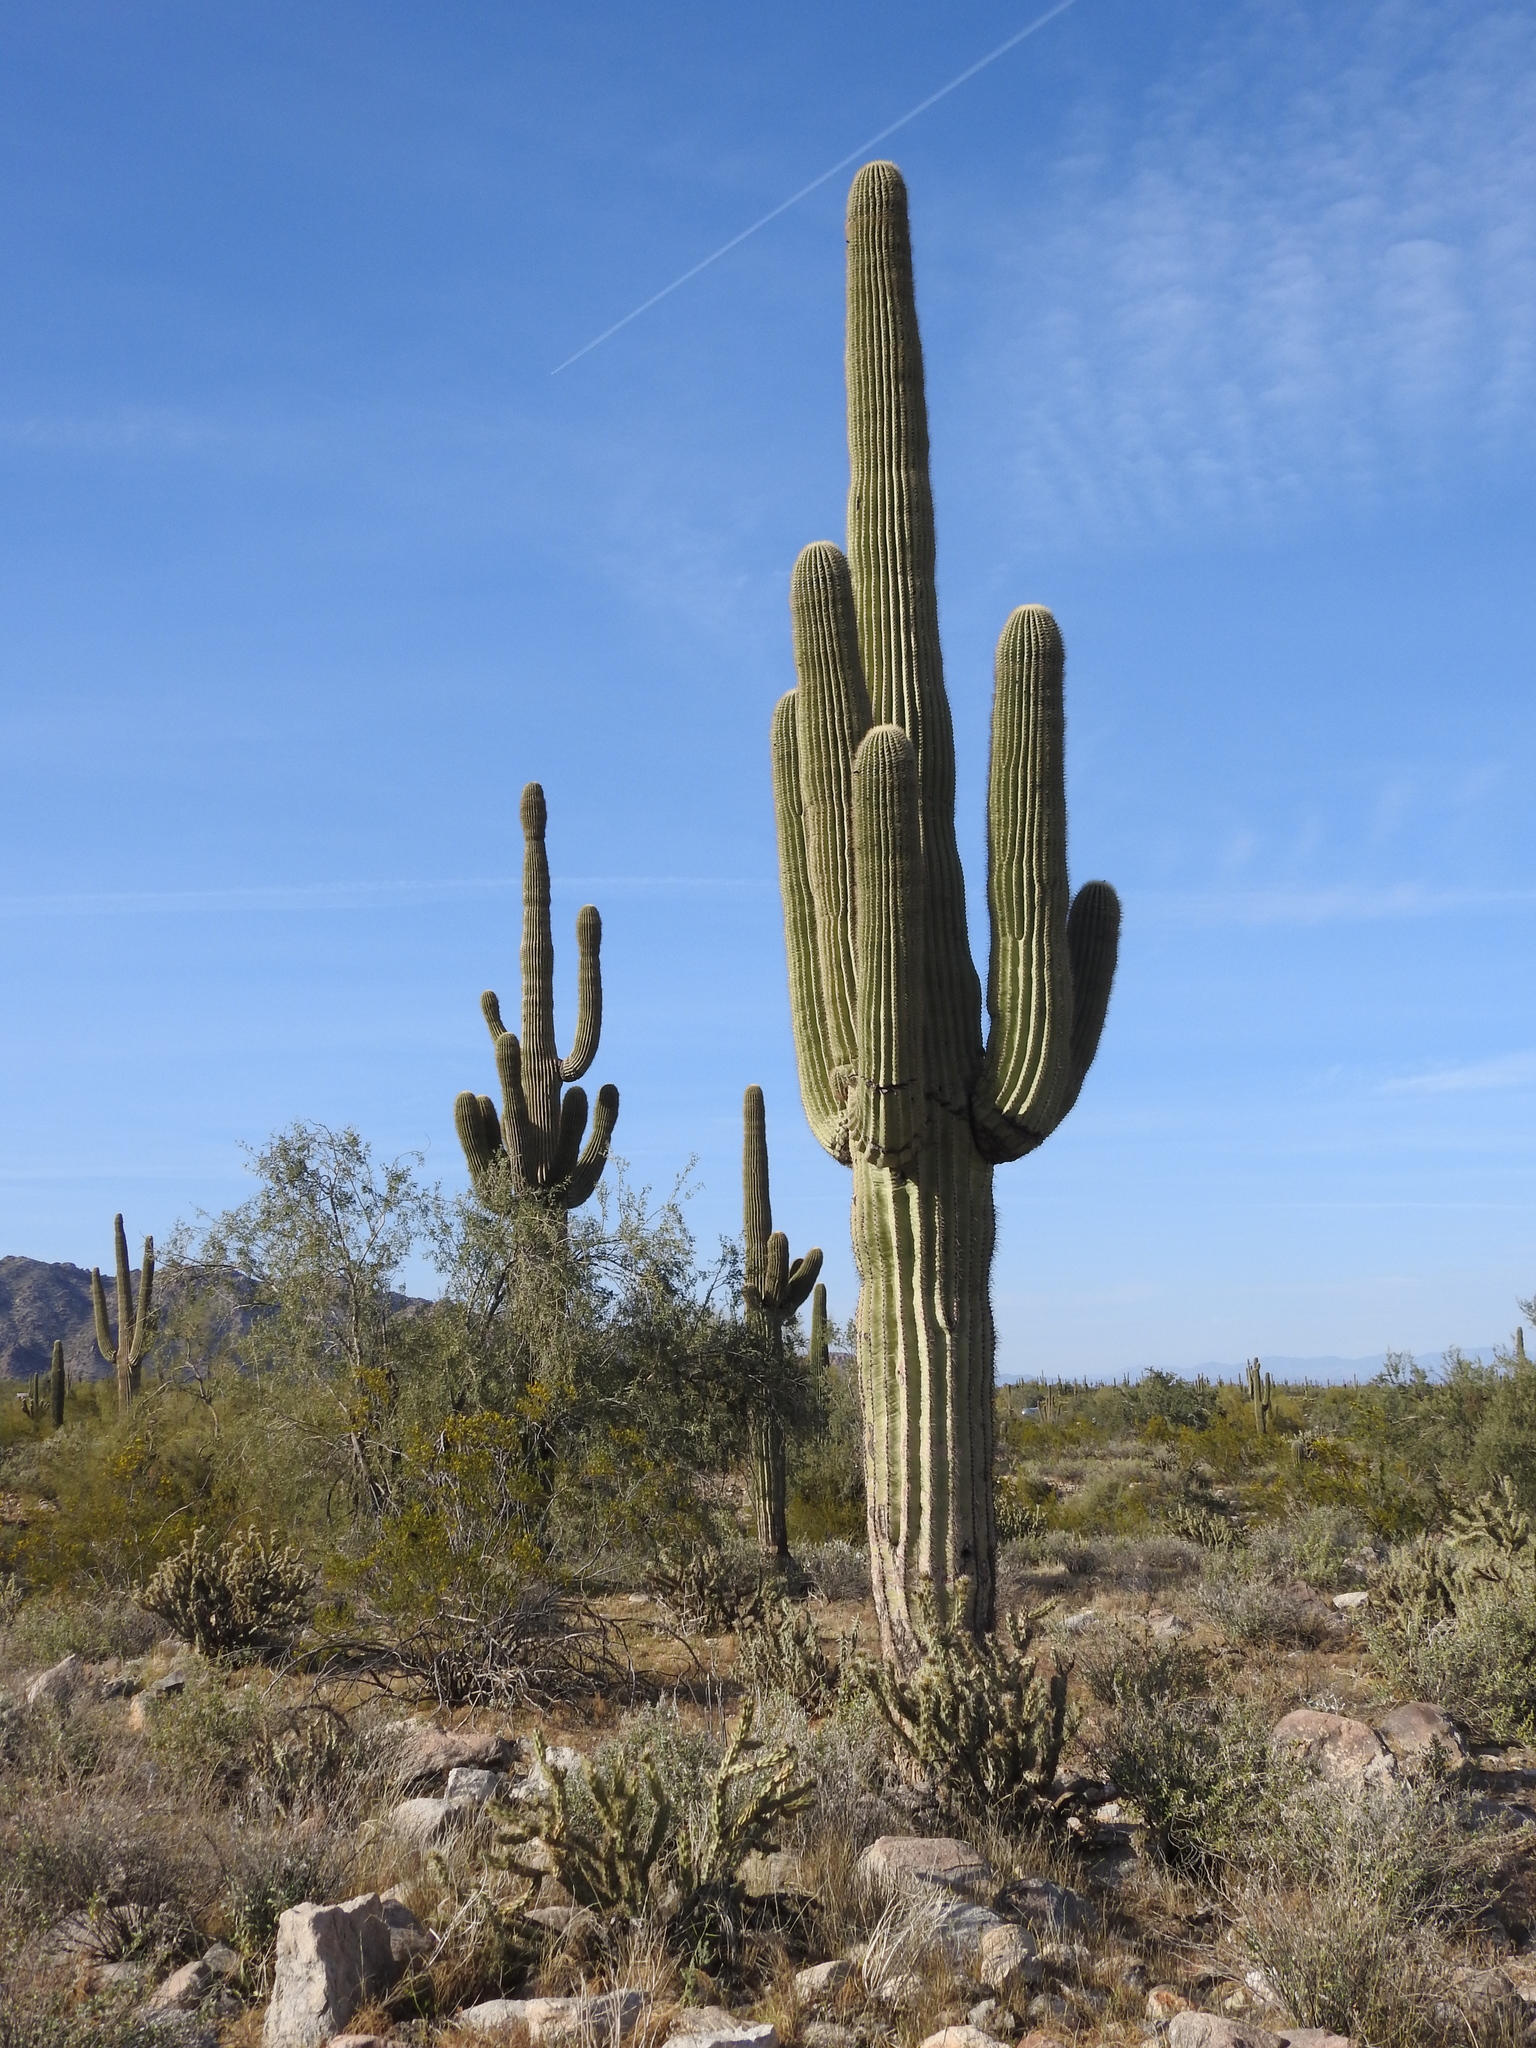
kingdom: Plantae
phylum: Tracheophyta
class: Magnoliopsida
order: Caryophyllales
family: Cactaceae
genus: Carnegiea
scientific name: Carnegiea gigantea
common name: Saguaro
